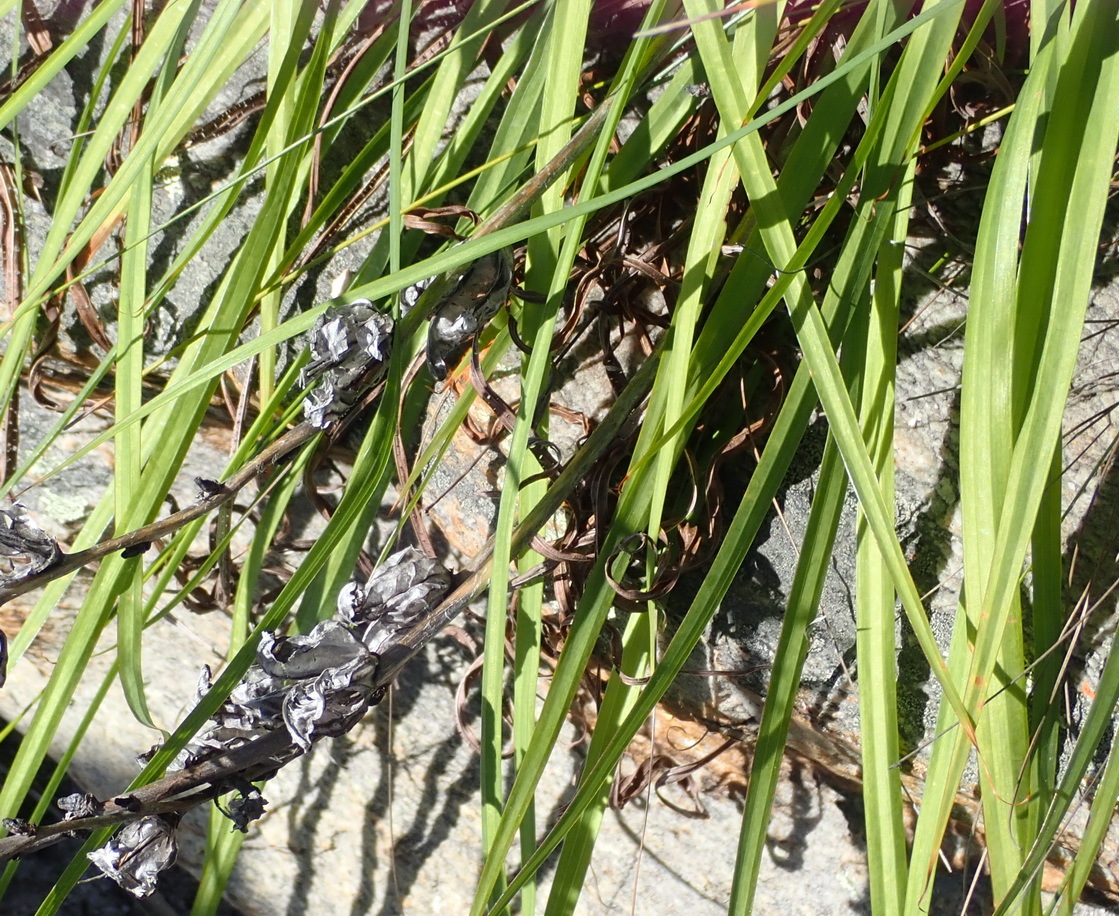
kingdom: Plantae
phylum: Tracheophyta
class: Liliopsida
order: Asparagales
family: Iridaceae
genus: Tritoniopsis
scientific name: Tritoniopsis caffra
